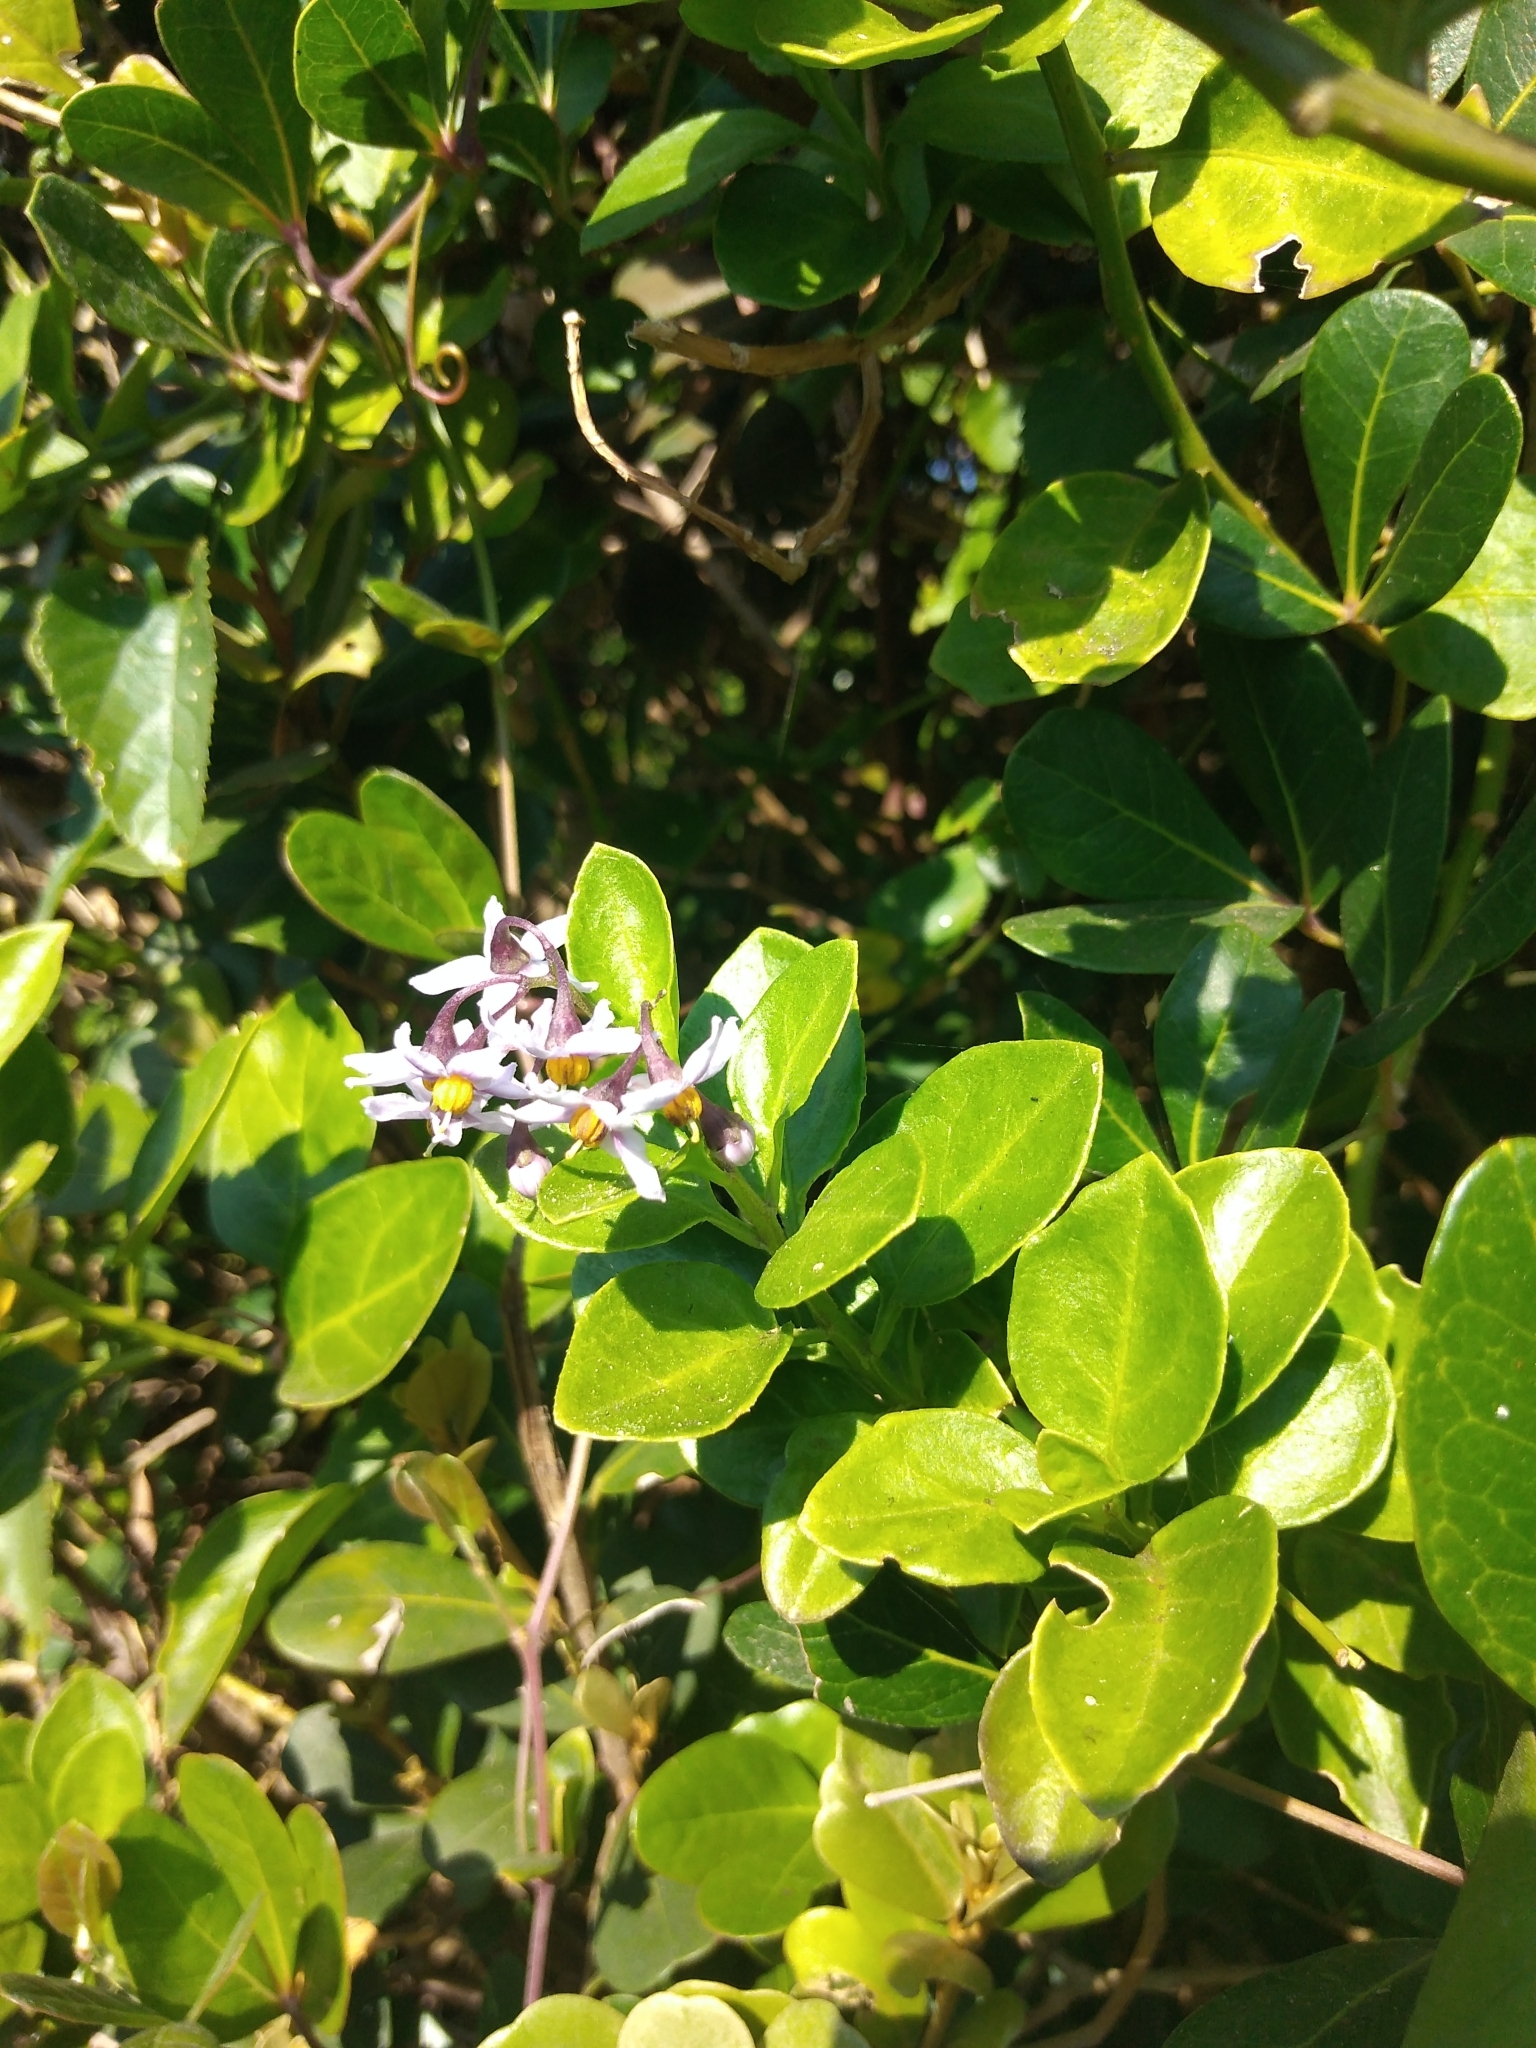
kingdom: Plantae
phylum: Tracheophyta
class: Magnoliopsida
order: Solanales
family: Solanaceae
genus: Solanum
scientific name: Solanum africanum
